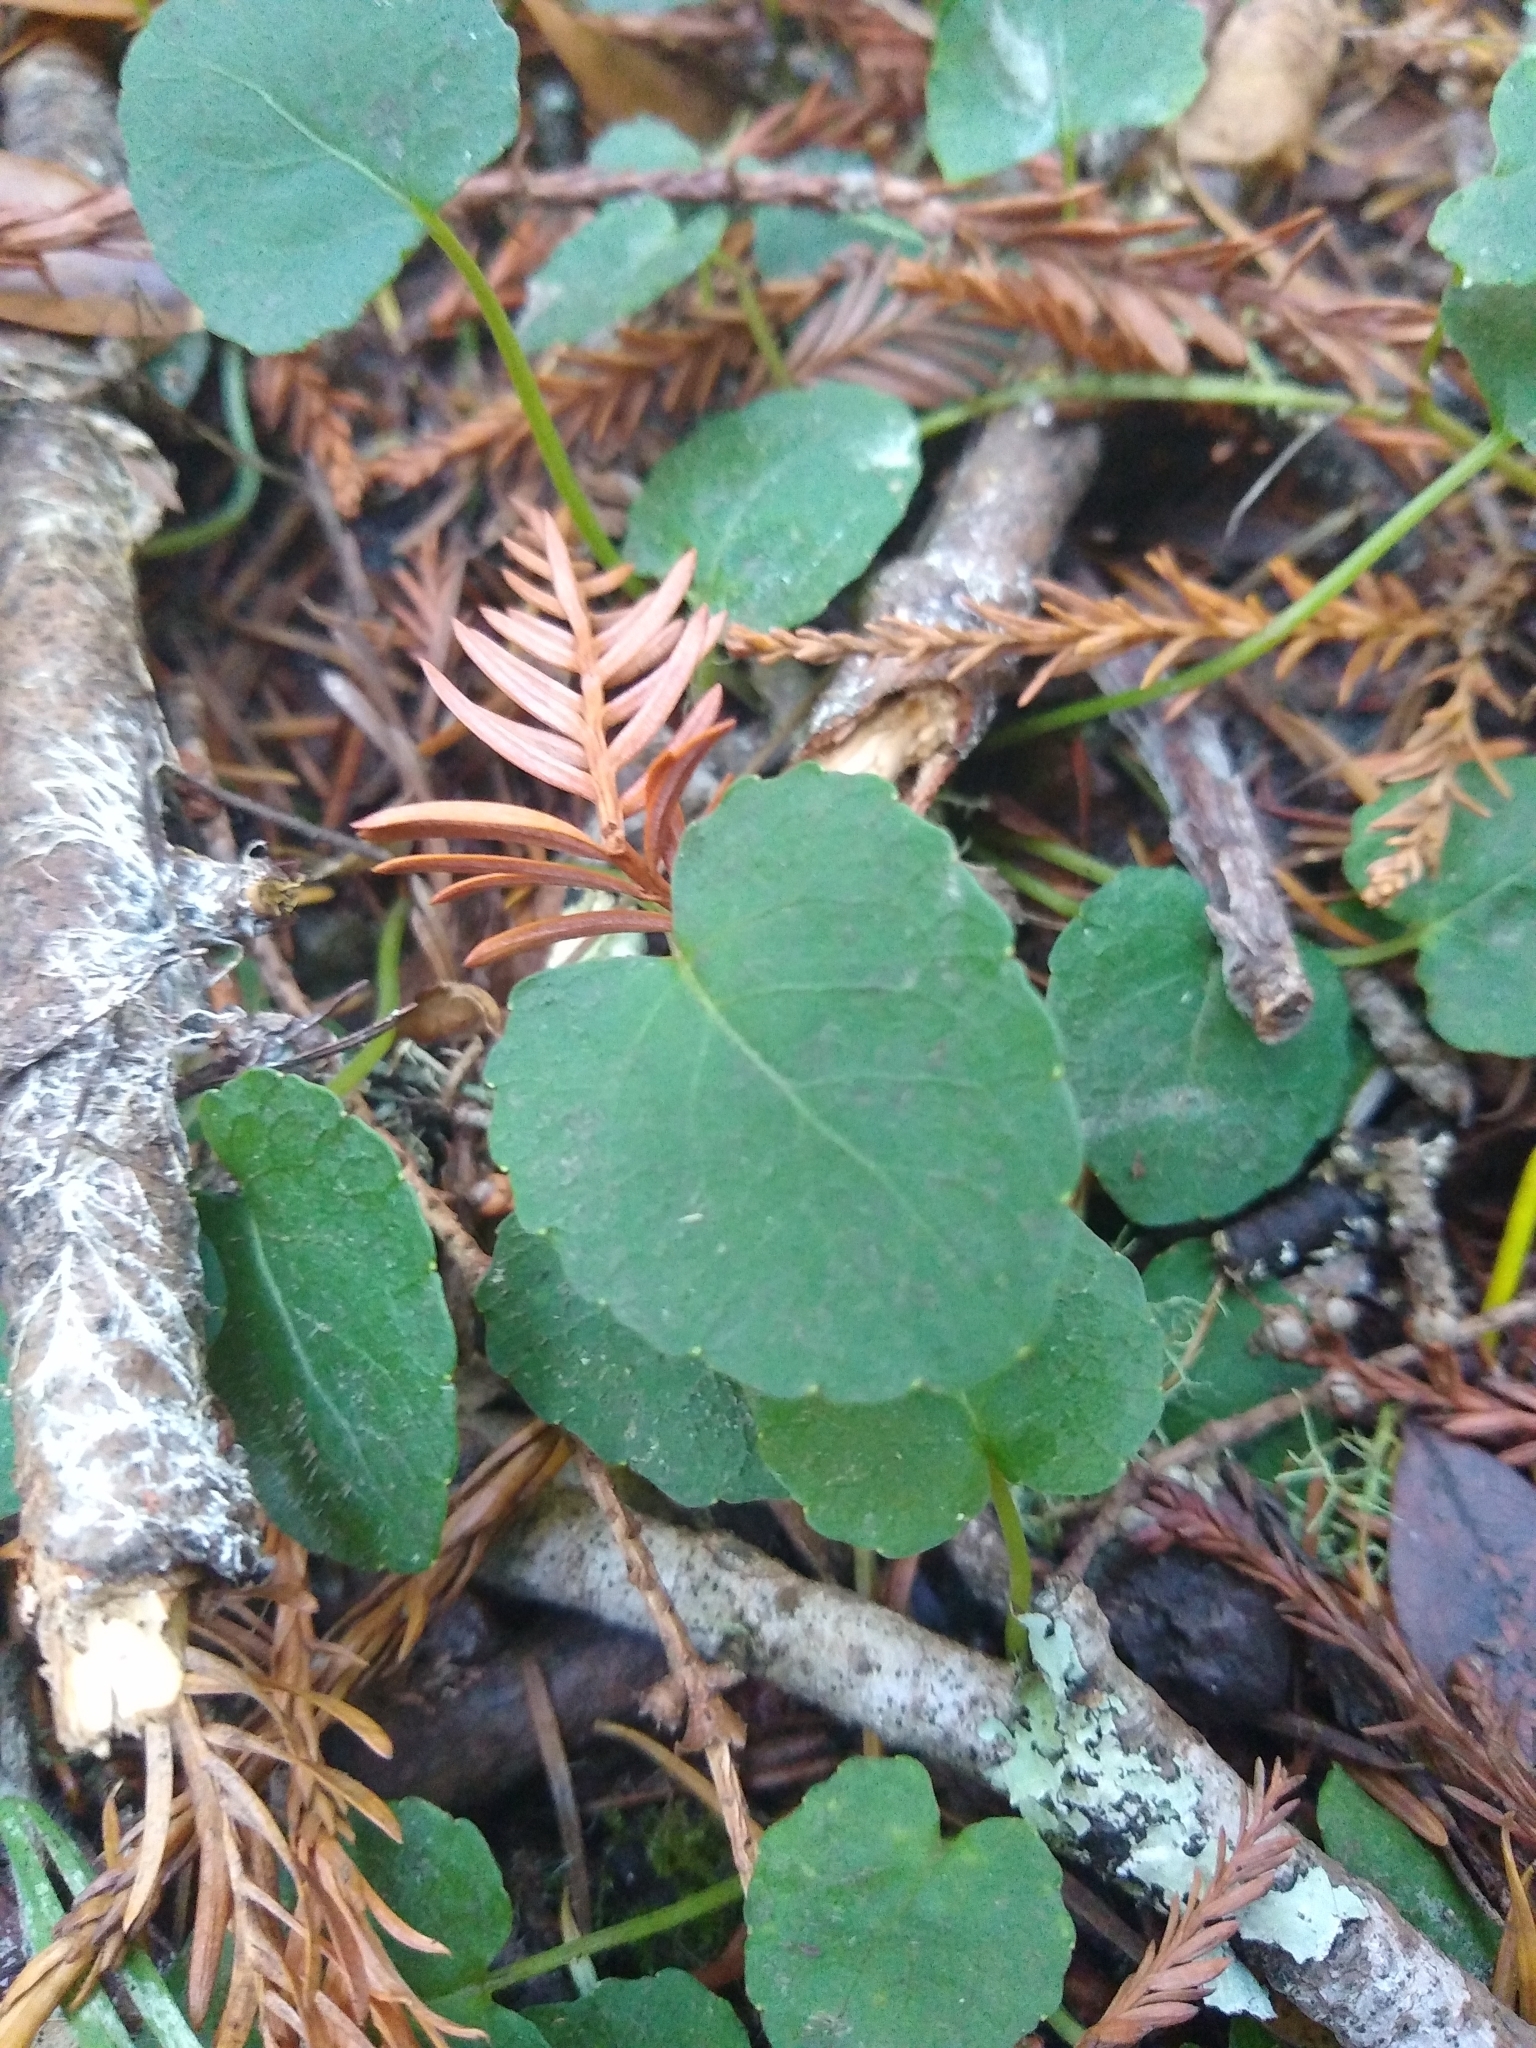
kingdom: Plantae
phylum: Tracheophyta
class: Magnoliopsida
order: Malpighiales
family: Violaceae
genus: Viola
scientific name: Viola sempervirens
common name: Evergreen violet
